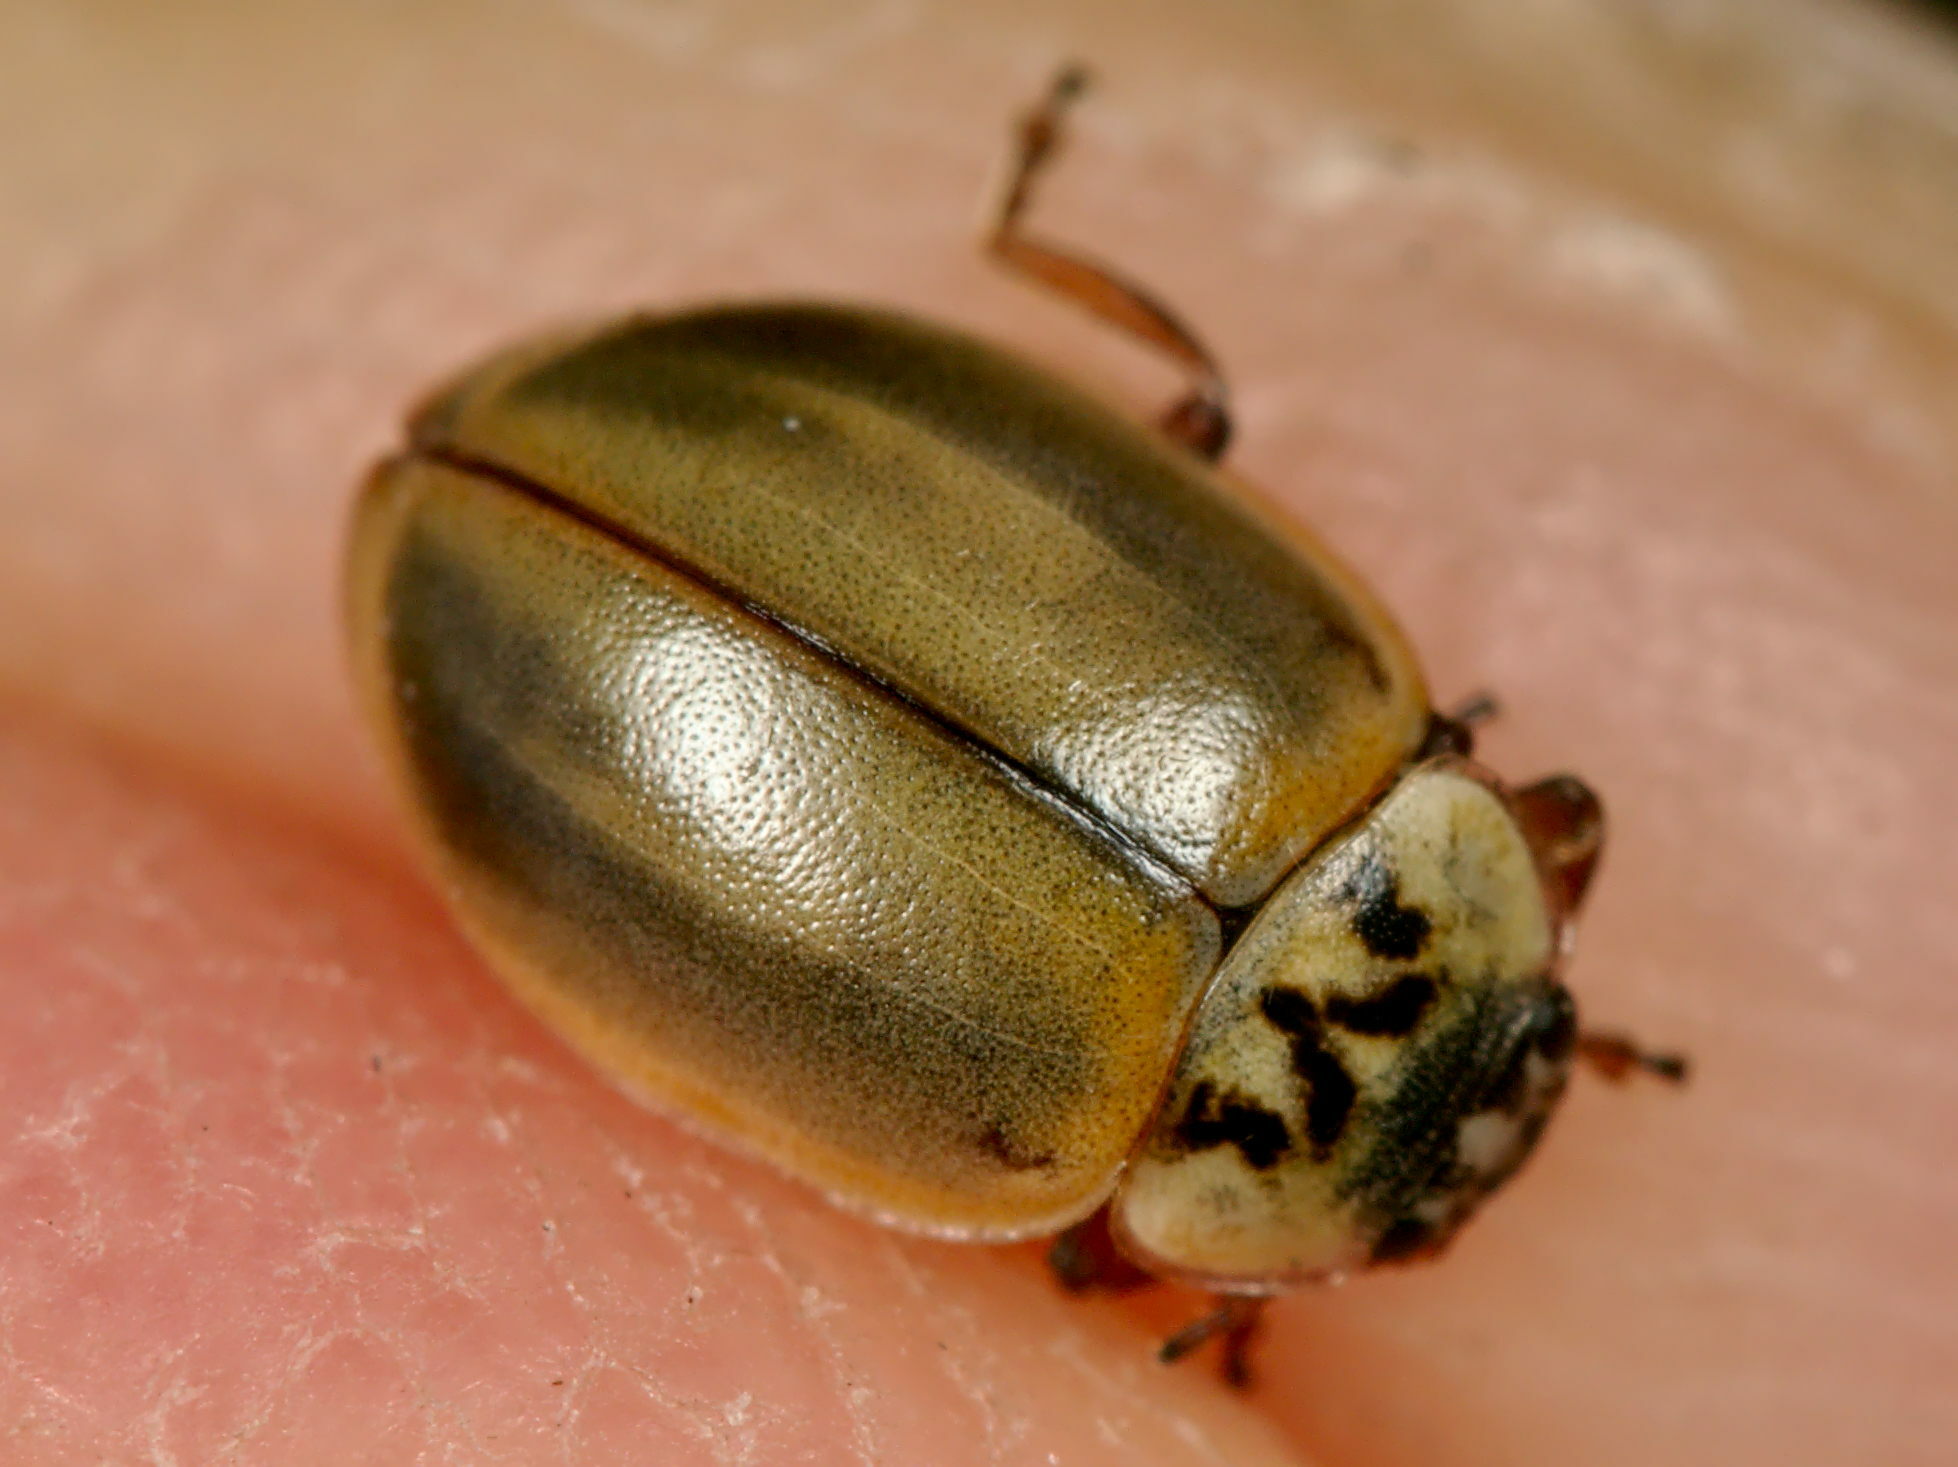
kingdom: Animalia
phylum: Arthropoda
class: Insecta
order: Coleoptera
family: Coccinellidae
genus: Aphidecta
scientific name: Aphidecta obliterata
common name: Larch ladybird
